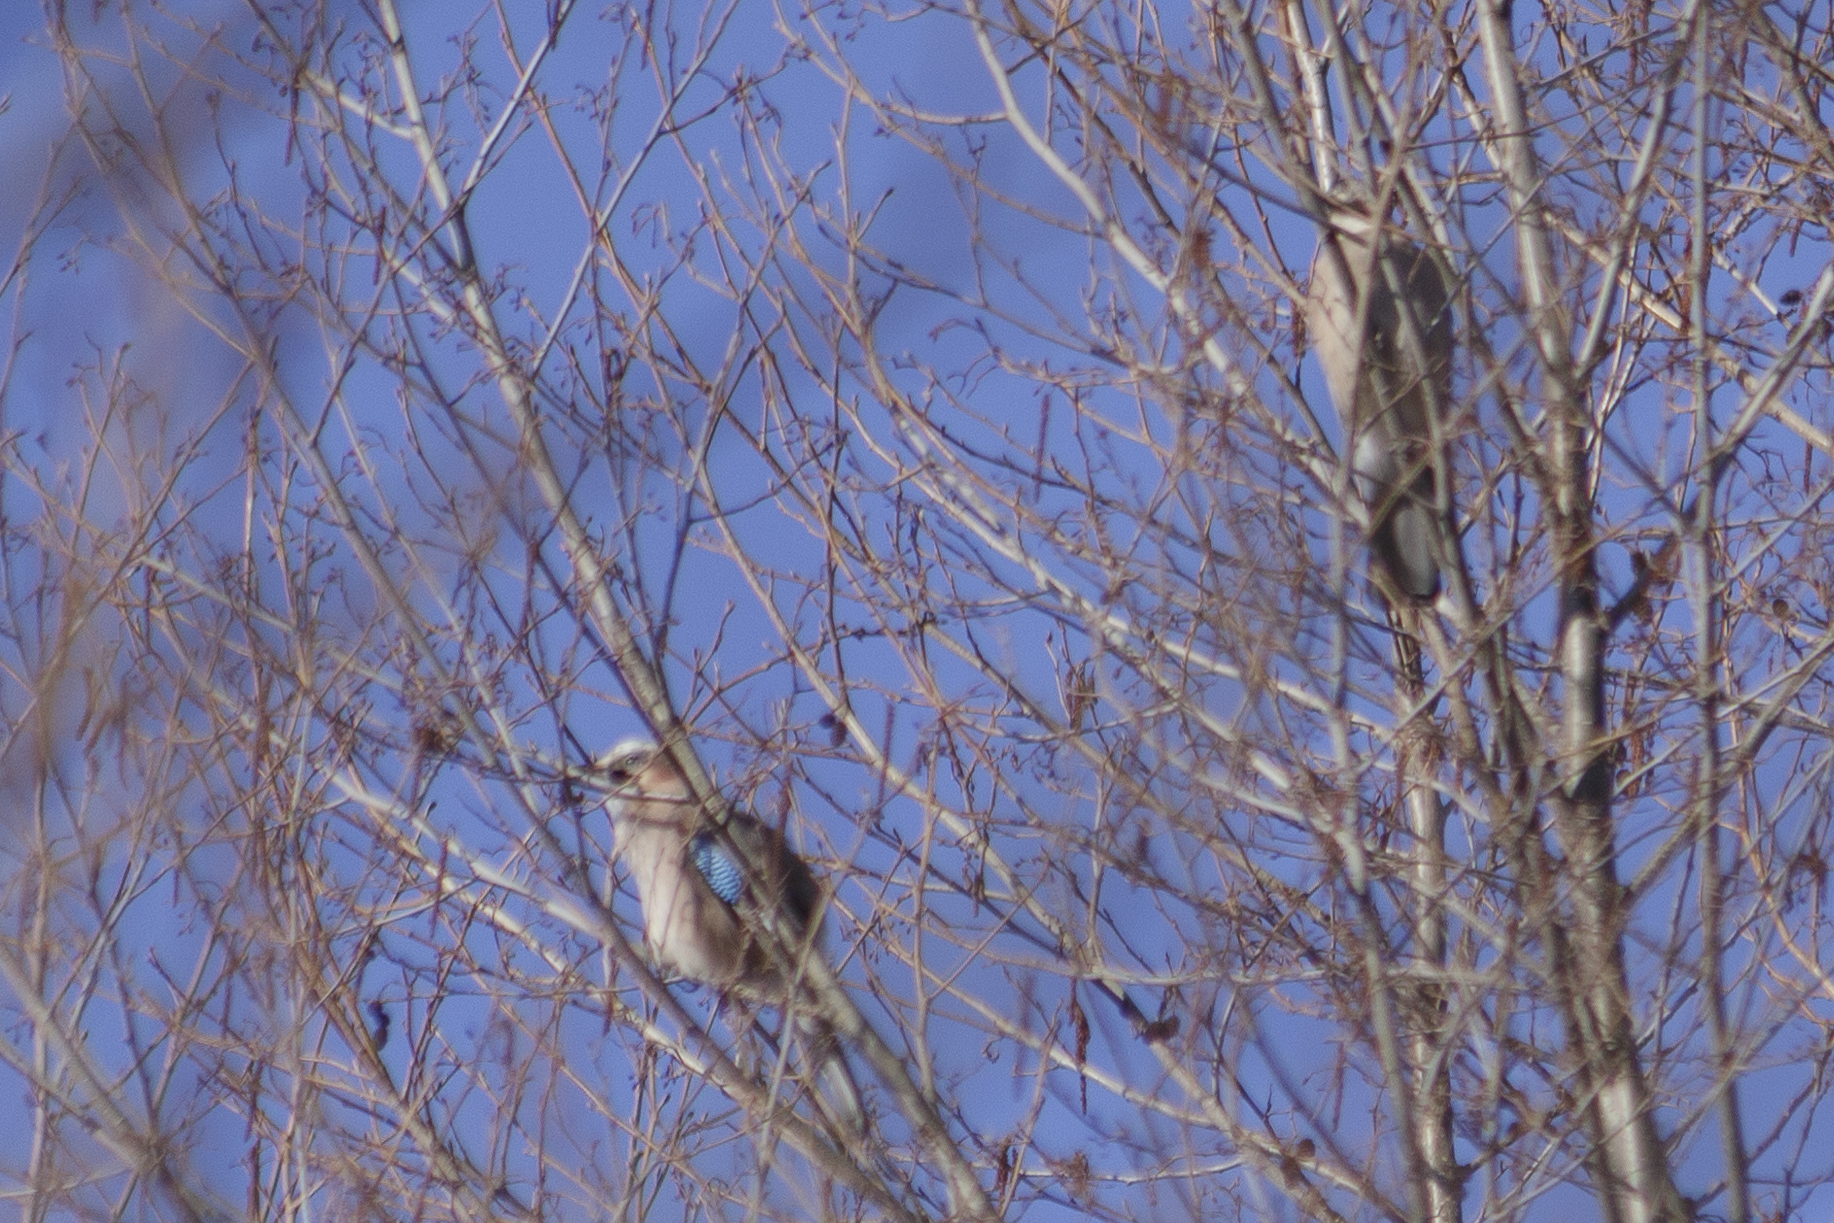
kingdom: Animalia
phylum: Chordata
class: Aves
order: Passeriformes
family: Corvidae
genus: Garrulus
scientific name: Garrulus glandarius
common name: Eurasian jay
